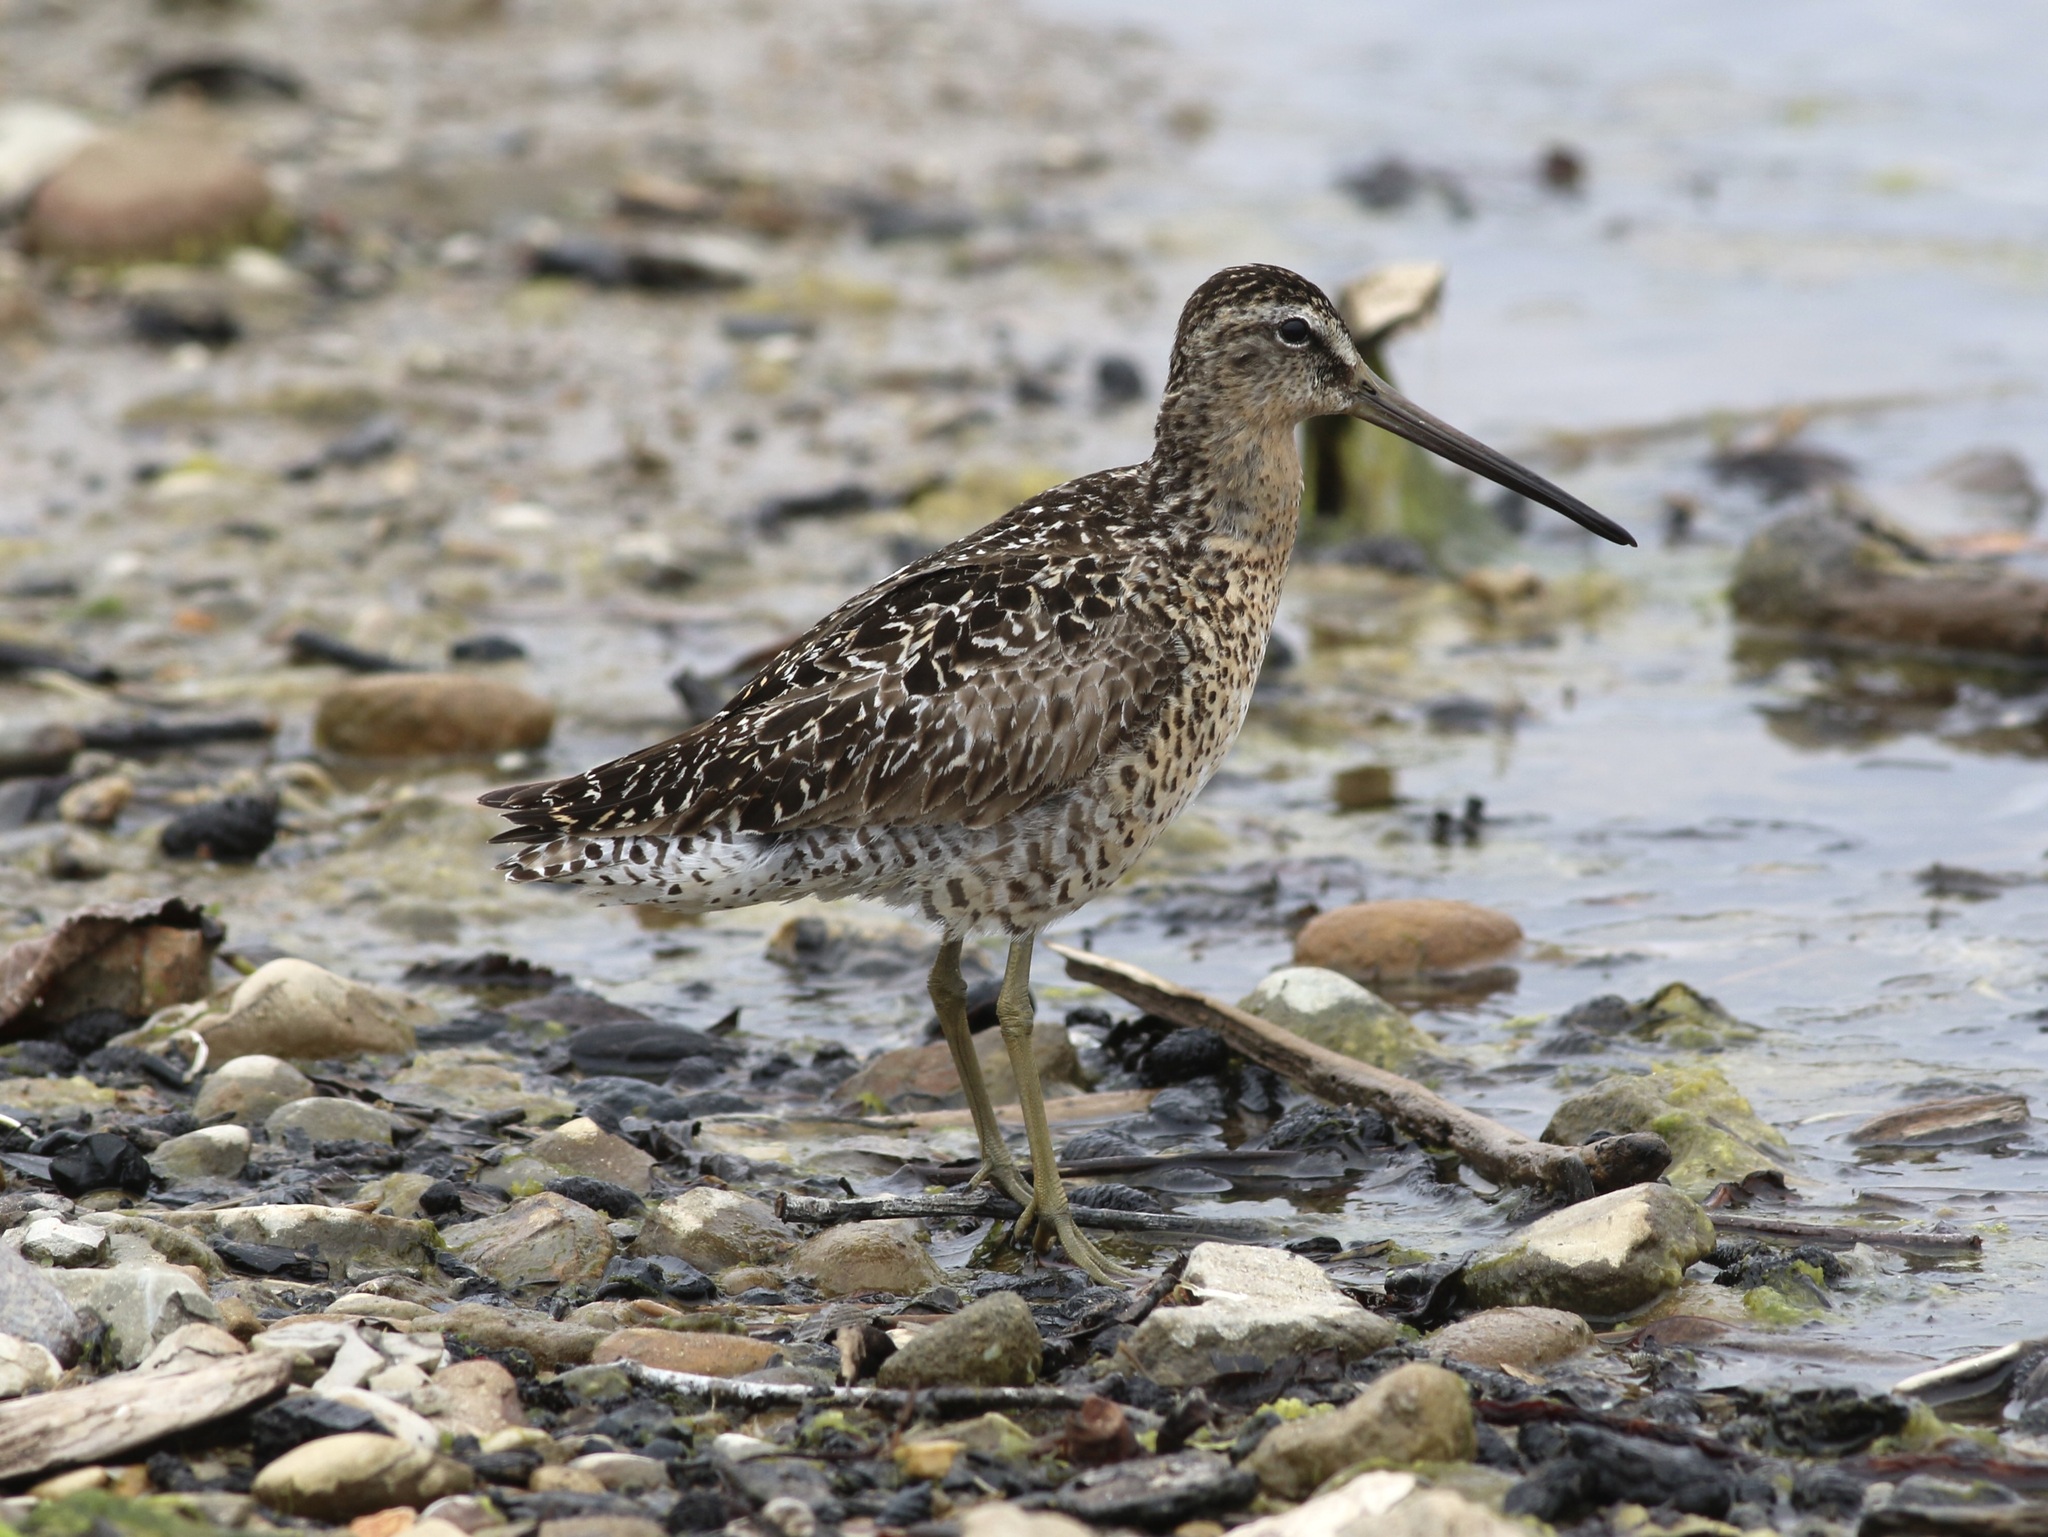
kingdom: Animalia
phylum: Chordata
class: Aves
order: Charadriiformes
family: Scolopacidae
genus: Limnodromus
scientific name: Limnodromus griseus
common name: Short-billed dowitcher
